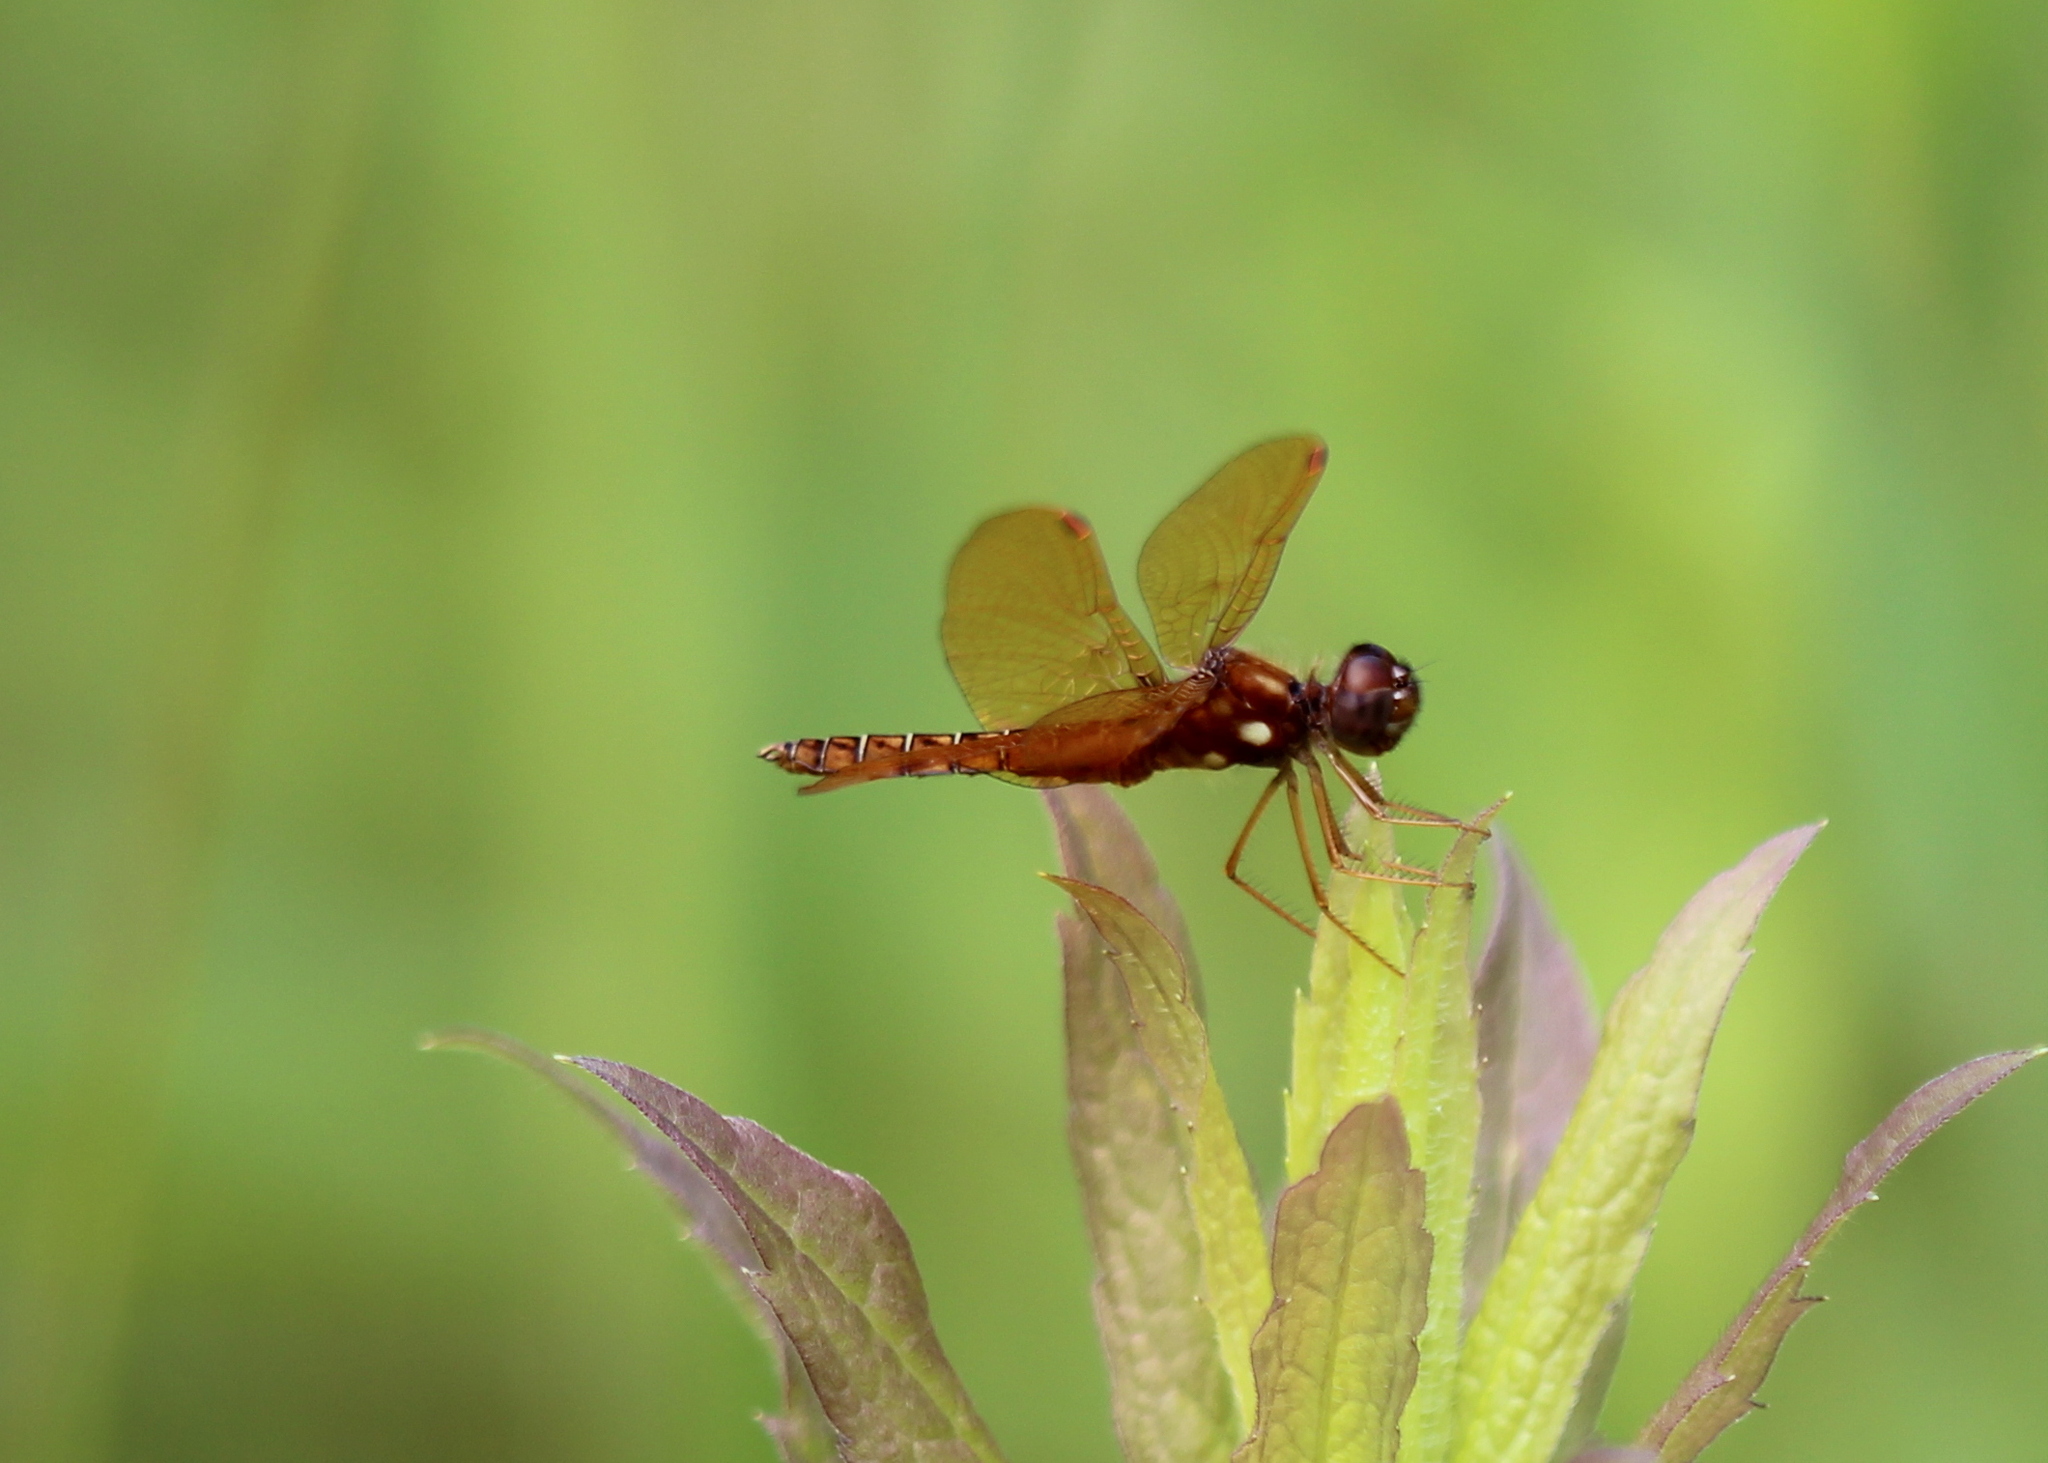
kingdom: Animalia
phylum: Arthropoda
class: Insecta
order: Odonata
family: Libellulidae
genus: Perithemis
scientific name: Perithemis tenera
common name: Eastern amberwing
